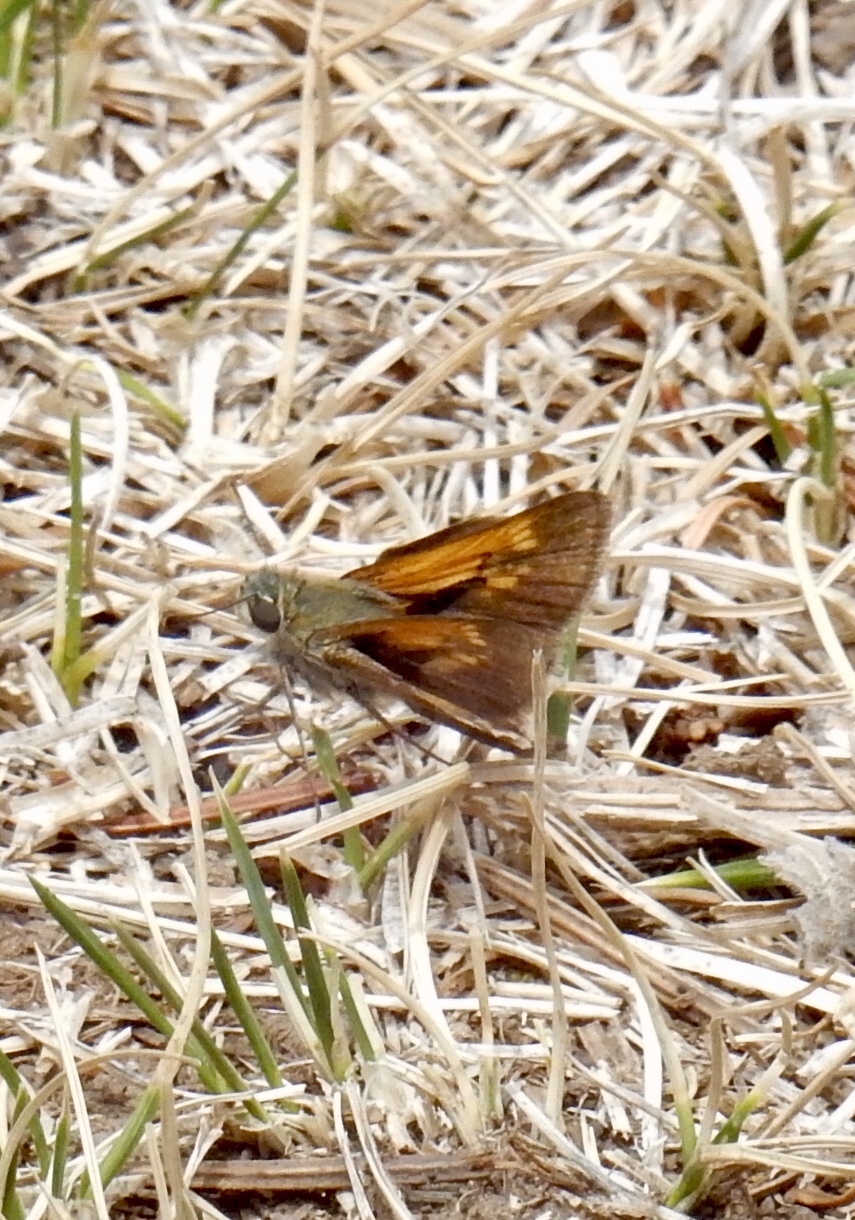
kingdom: Animalia
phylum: Arthropoda
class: Insecta
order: Lepidoptera
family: Hesperiidae
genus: Polites
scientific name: Polites themistocles
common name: Tawny-edged skipper
